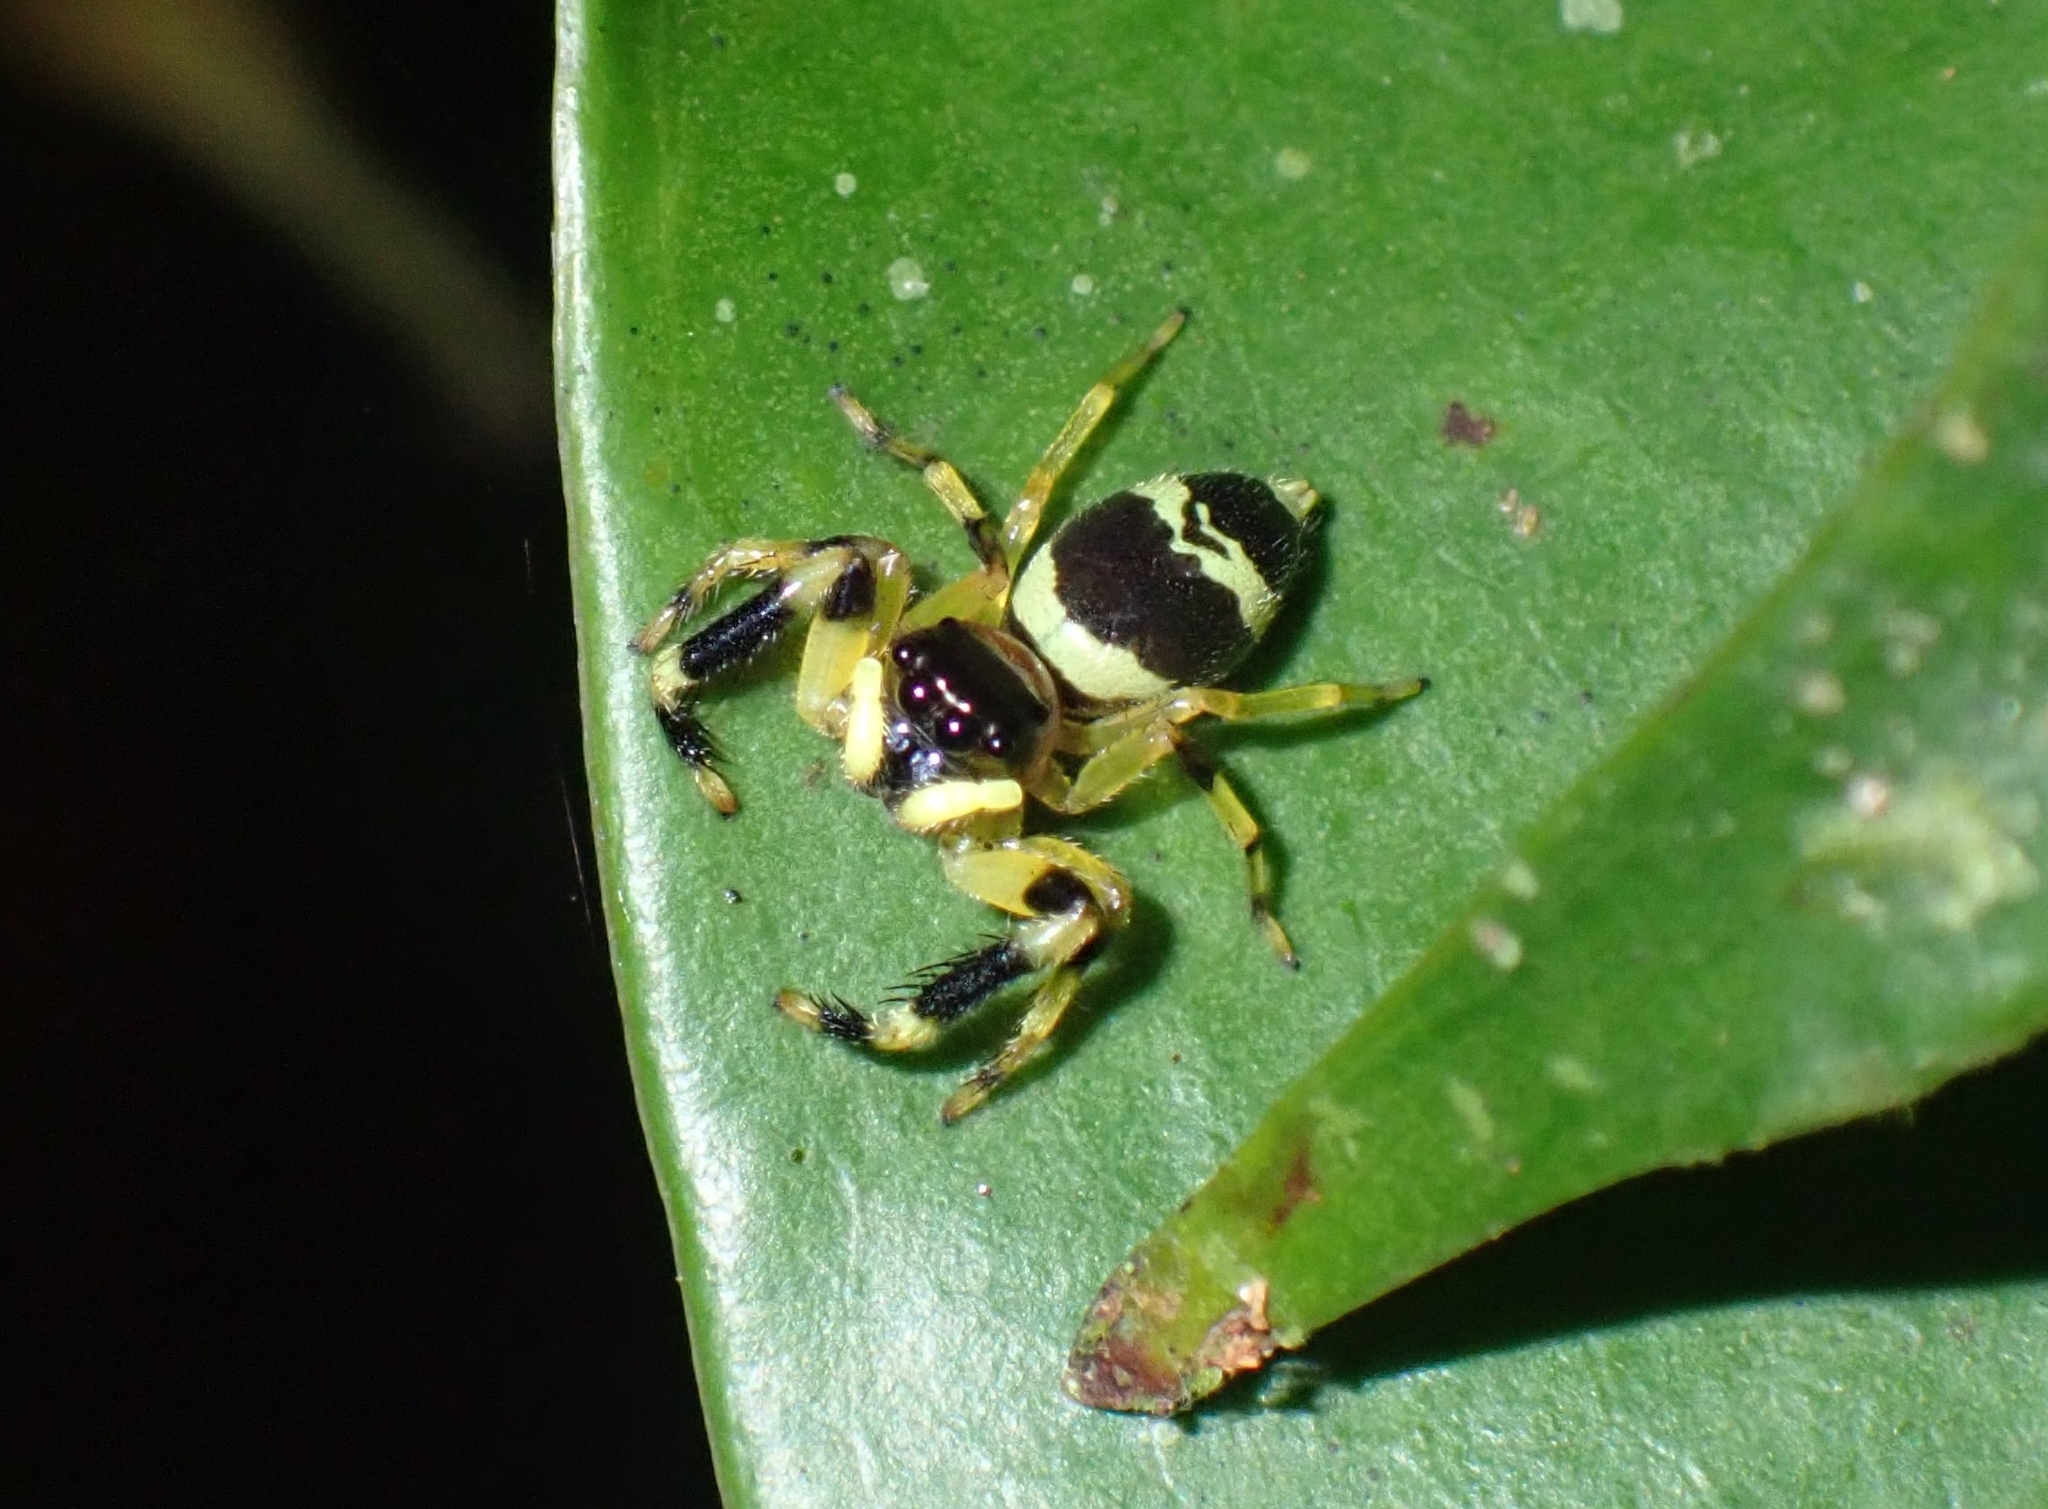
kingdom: Animalia
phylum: Arthropoda
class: Arachnida
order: Araneae
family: Salticidae
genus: Thiania
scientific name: Thiania latefasciata
